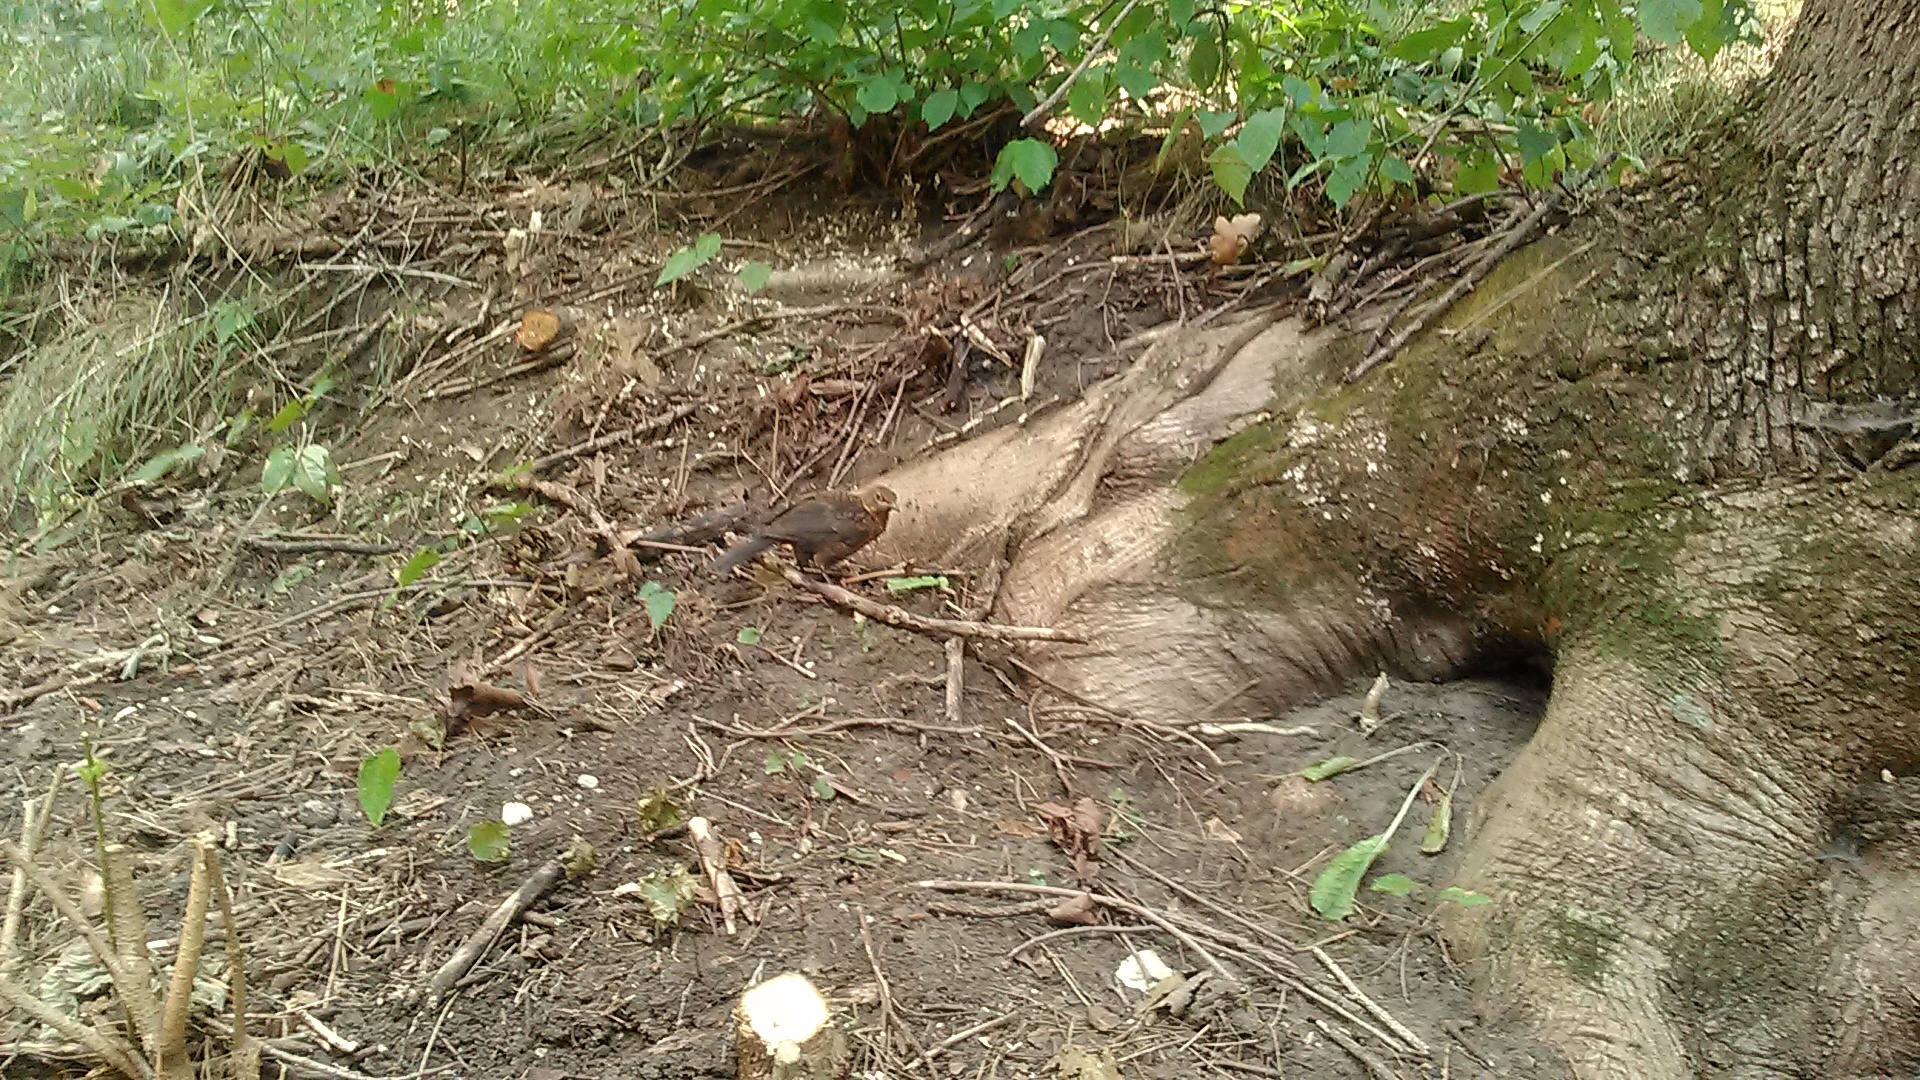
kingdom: Animalia
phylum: Chordata
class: Aves
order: Passeriformes
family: Turdidae
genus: Turdus
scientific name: Turdus merula
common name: Common blackbird
